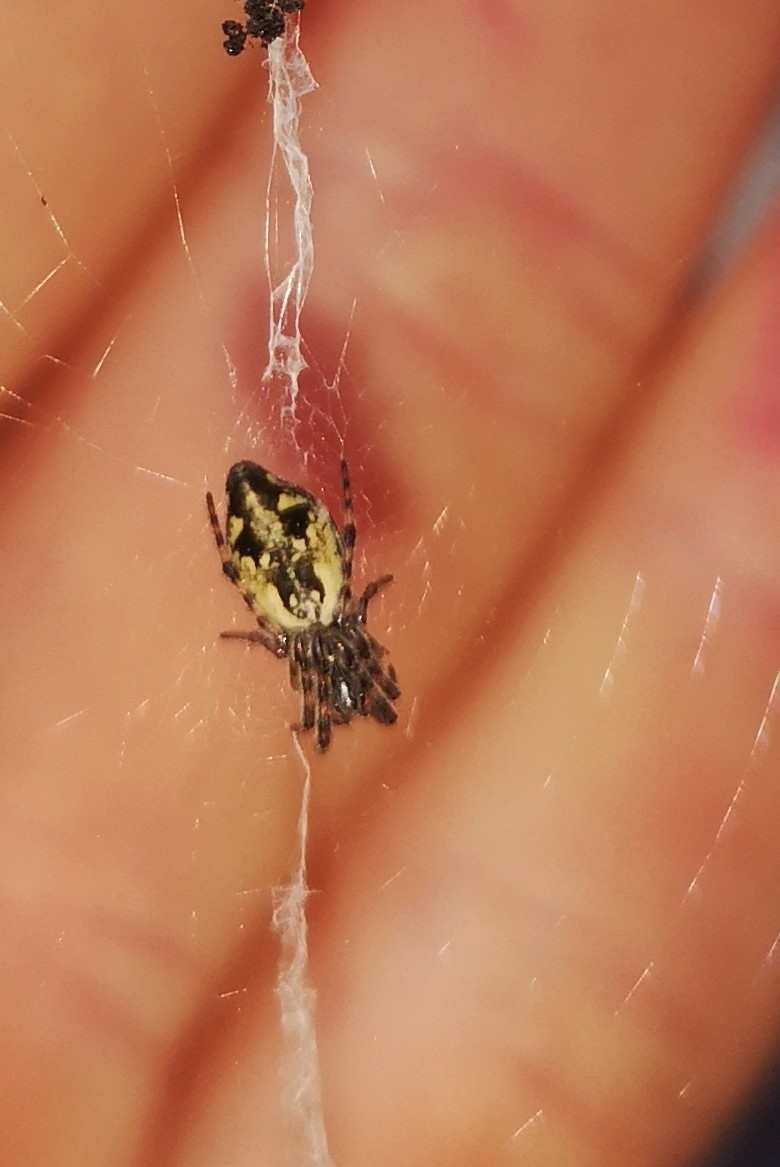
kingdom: Animalia
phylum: Arthropoda
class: Arachnida
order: Araneae
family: Araneidae
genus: Cyclosa
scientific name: Cyclosa conica
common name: Conical trashline orbweaver
